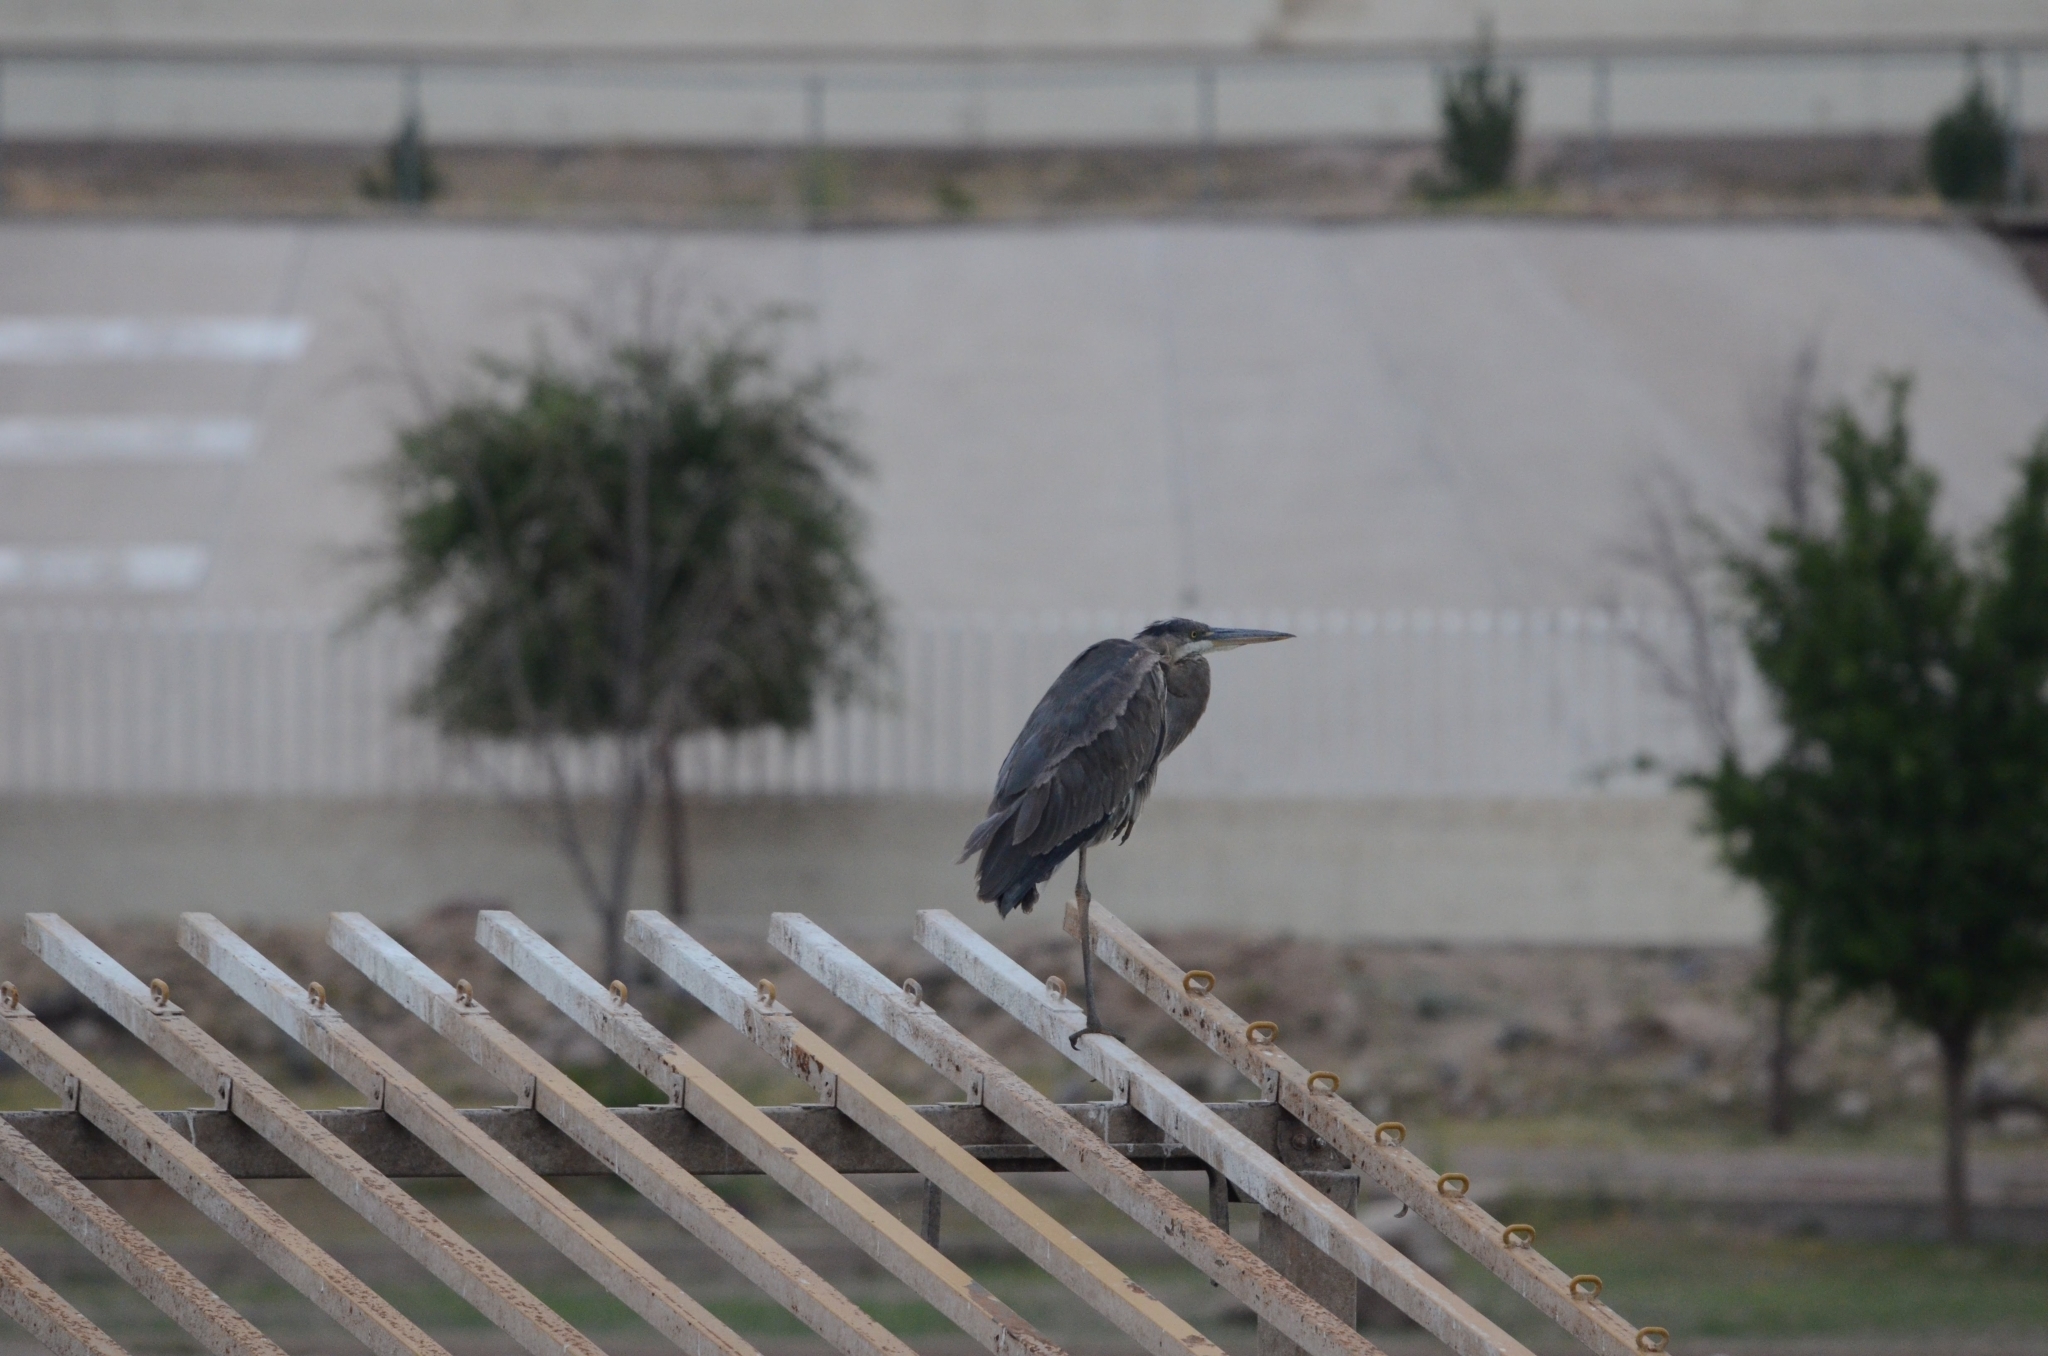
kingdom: Animalia
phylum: Chordata
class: Aves
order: Pelecaniformes
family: Ardeidae
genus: Ardea
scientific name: Ardea herodias
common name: Great blue heron
